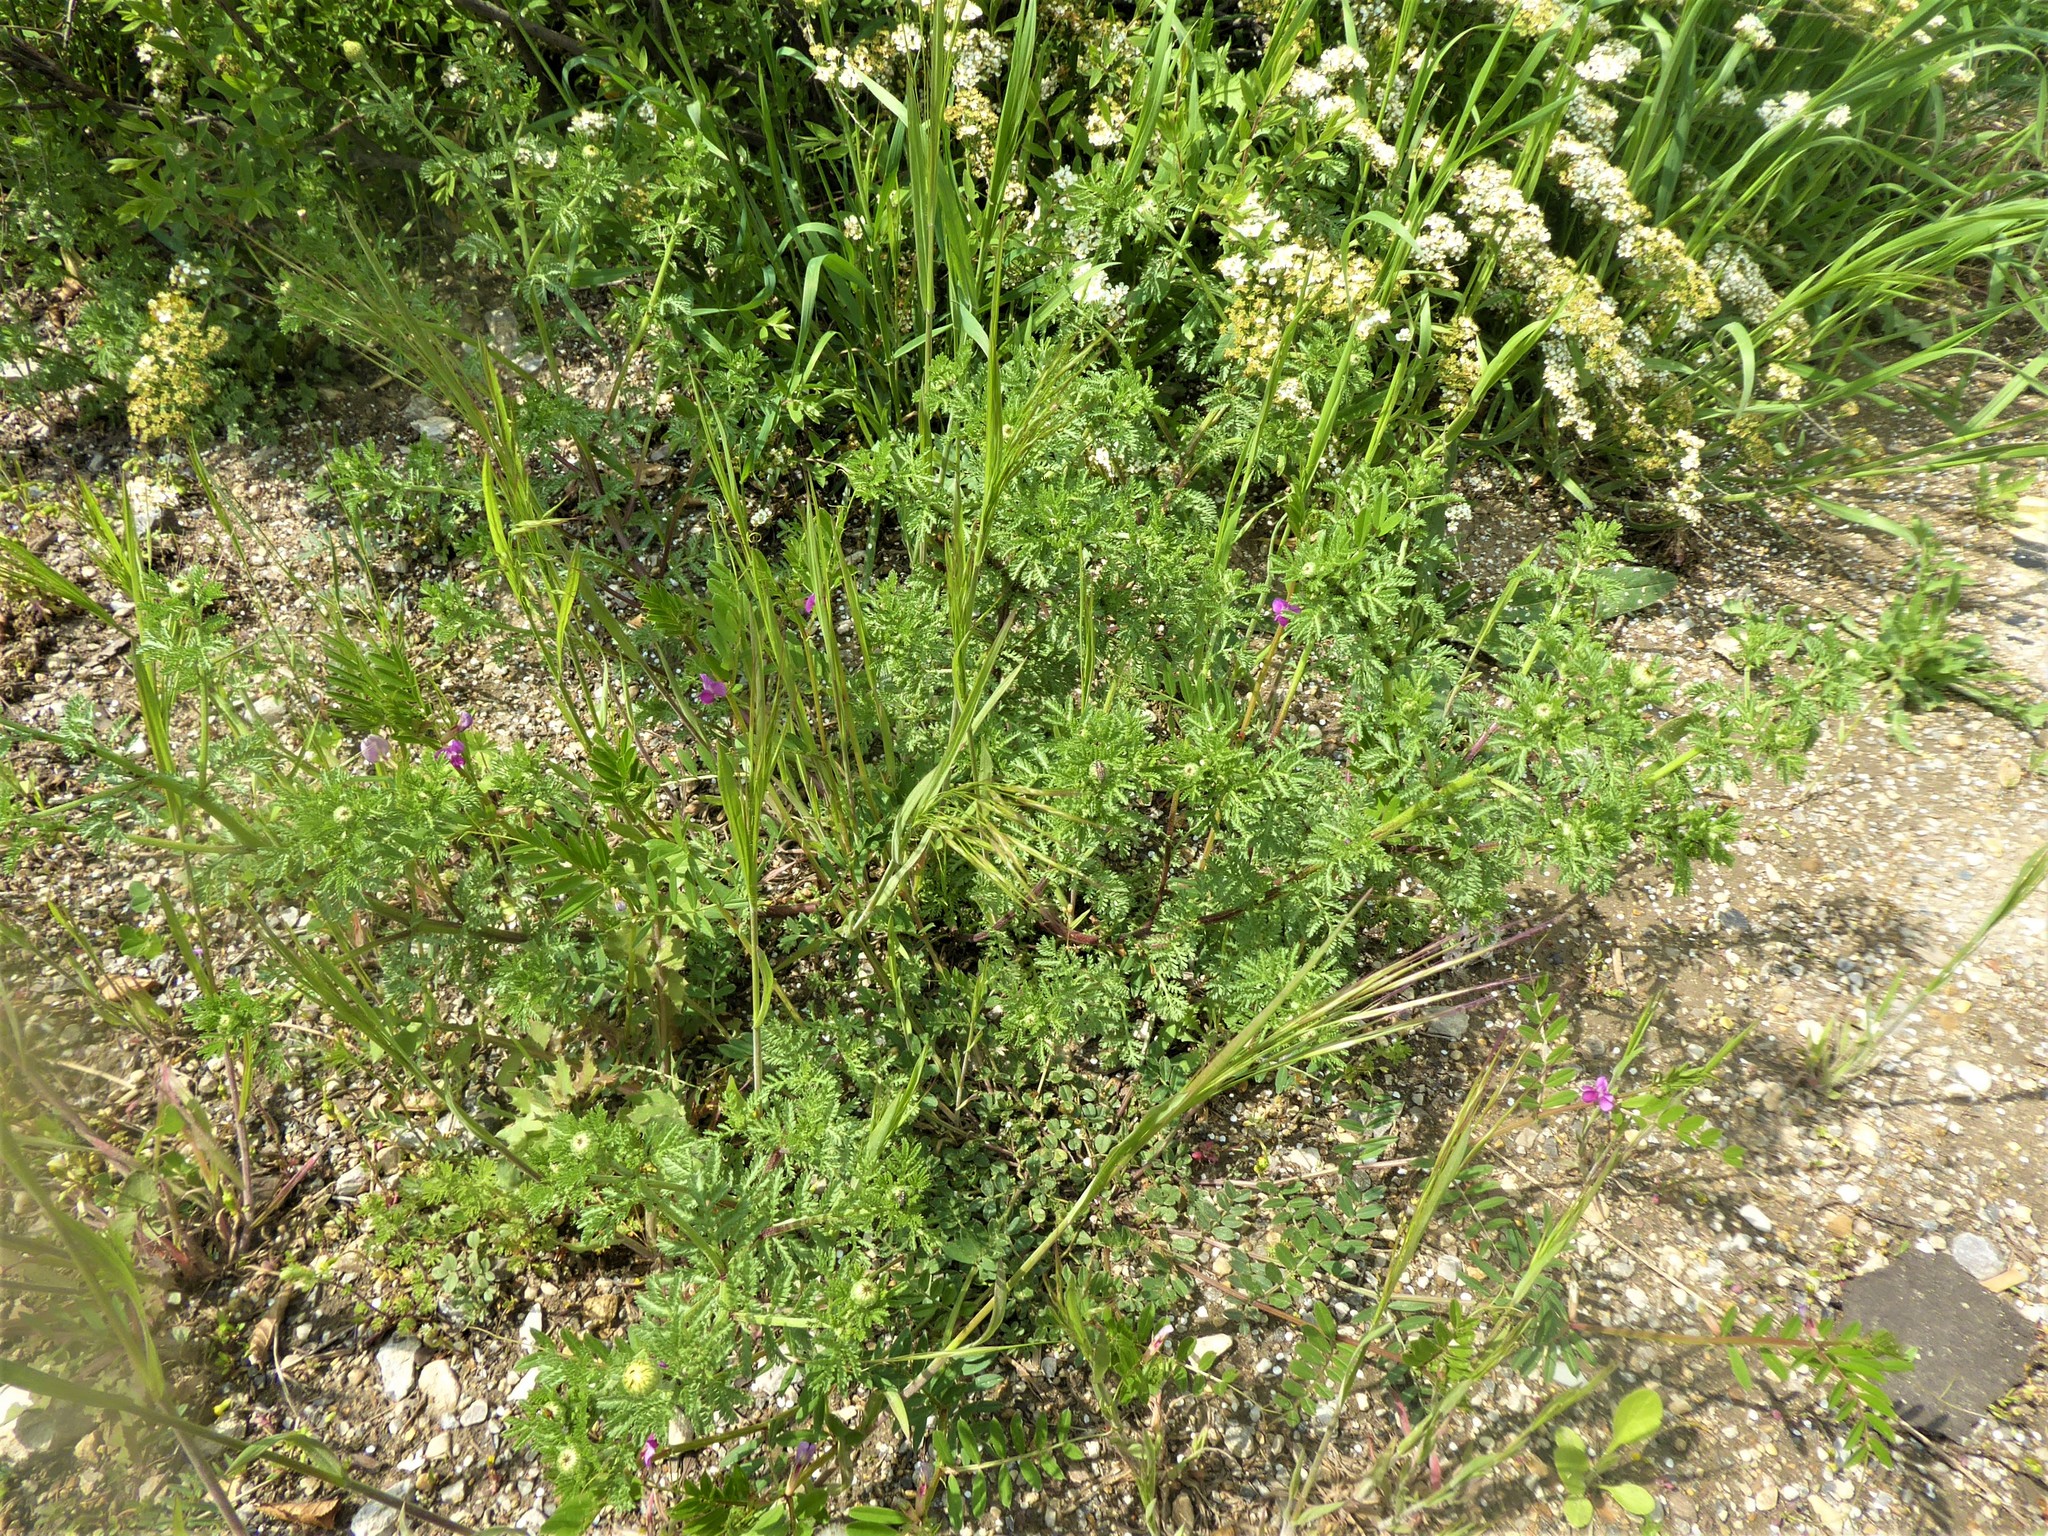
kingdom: Plantae
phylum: Tracheophyta
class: Magnoliopsida
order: Asterales
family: Asteraceae
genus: Cota
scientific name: Cota austriaca
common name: Austrian chamomile
